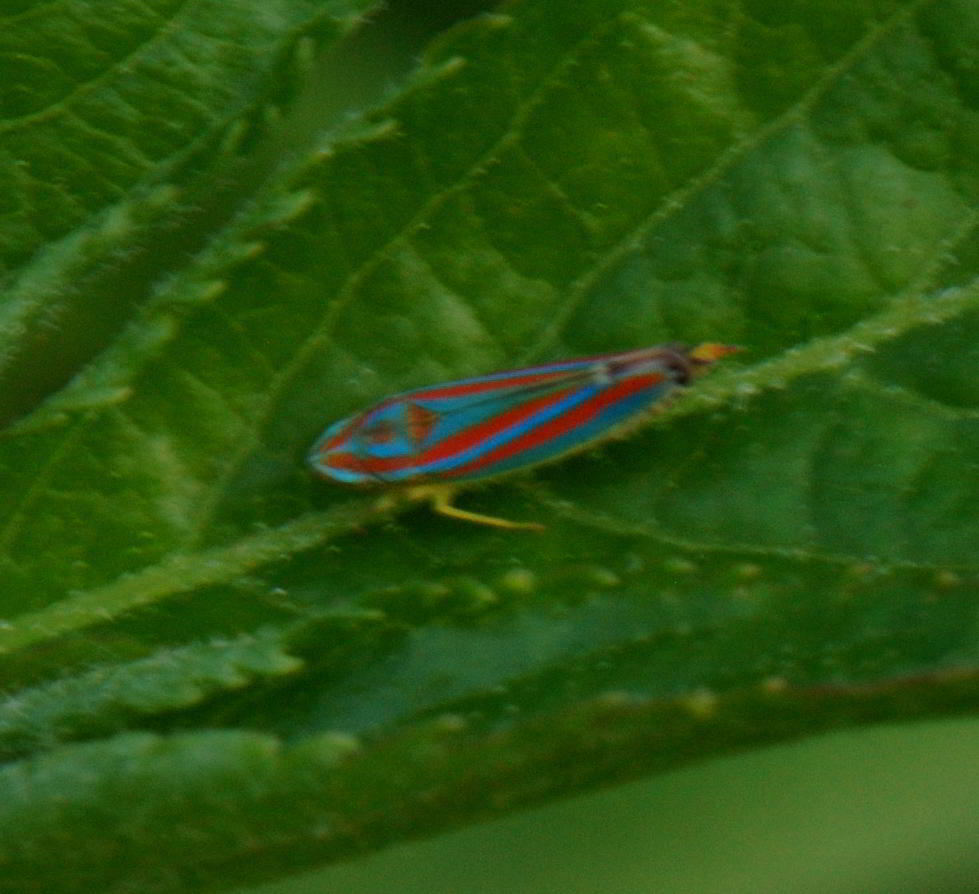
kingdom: Animalia
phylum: Arthropoda
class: Insecta
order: Hemiptera
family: Cicadellidae
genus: Graphocephala
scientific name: Graphocephala coccinea
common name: Candy-striped leafhopper
